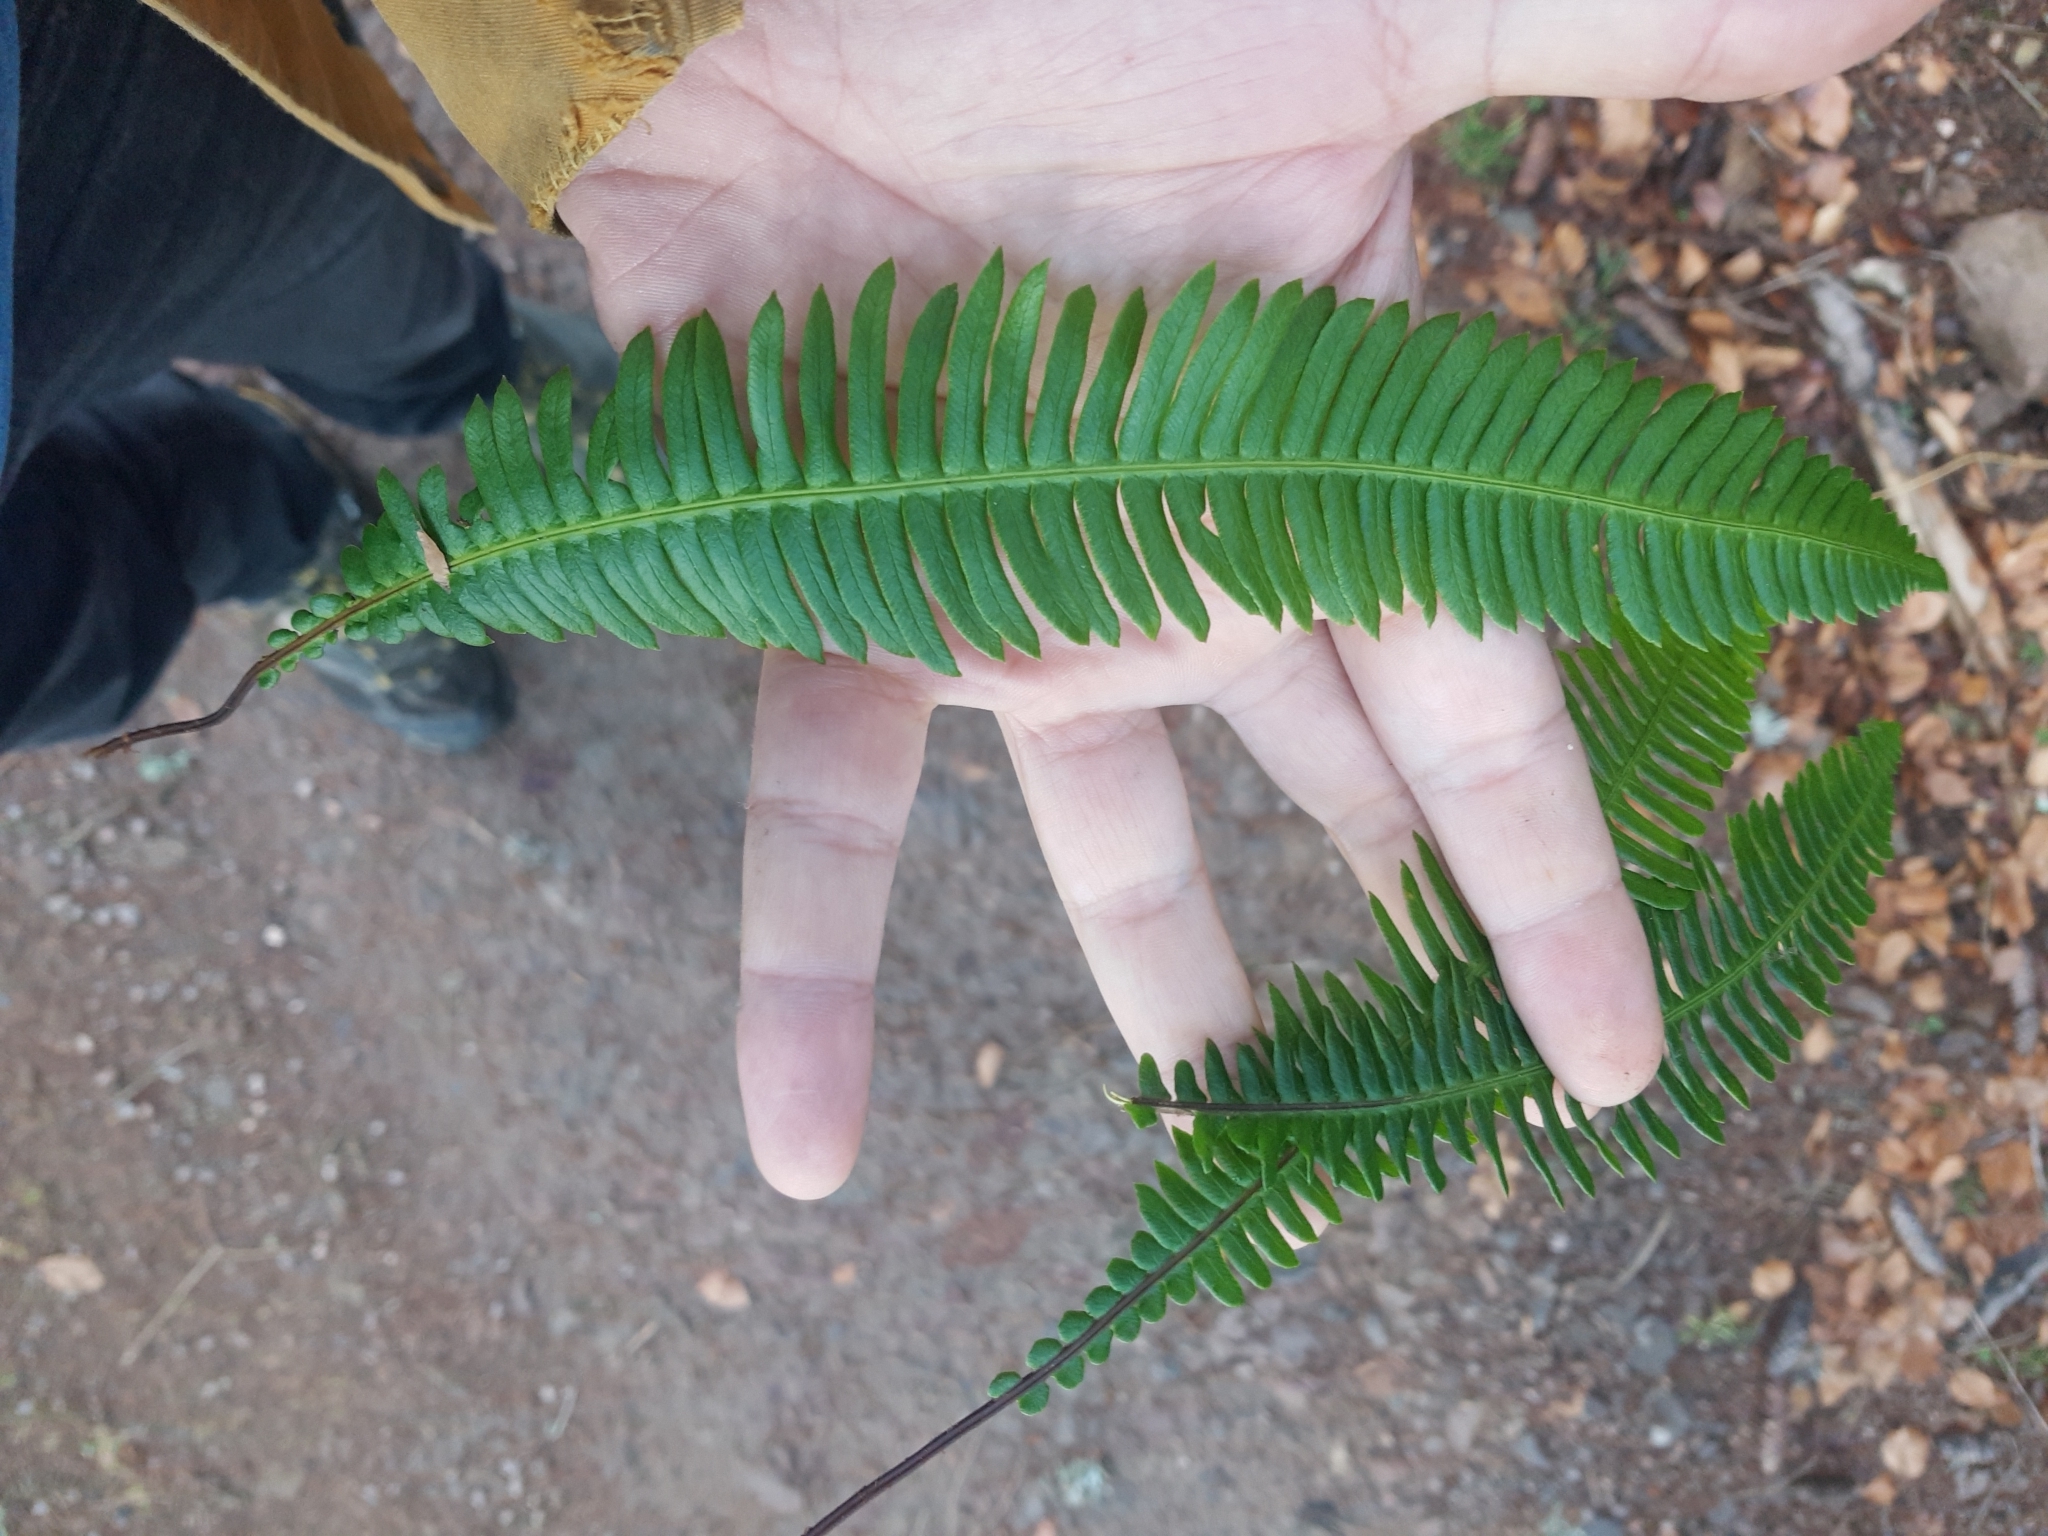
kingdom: Plantae
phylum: Tracheophyta
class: Polypodiopsida
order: Polypodiales
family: Blechnaceae
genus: Struthiopteris
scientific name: Struthiopteris spicant
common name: Deer fern
